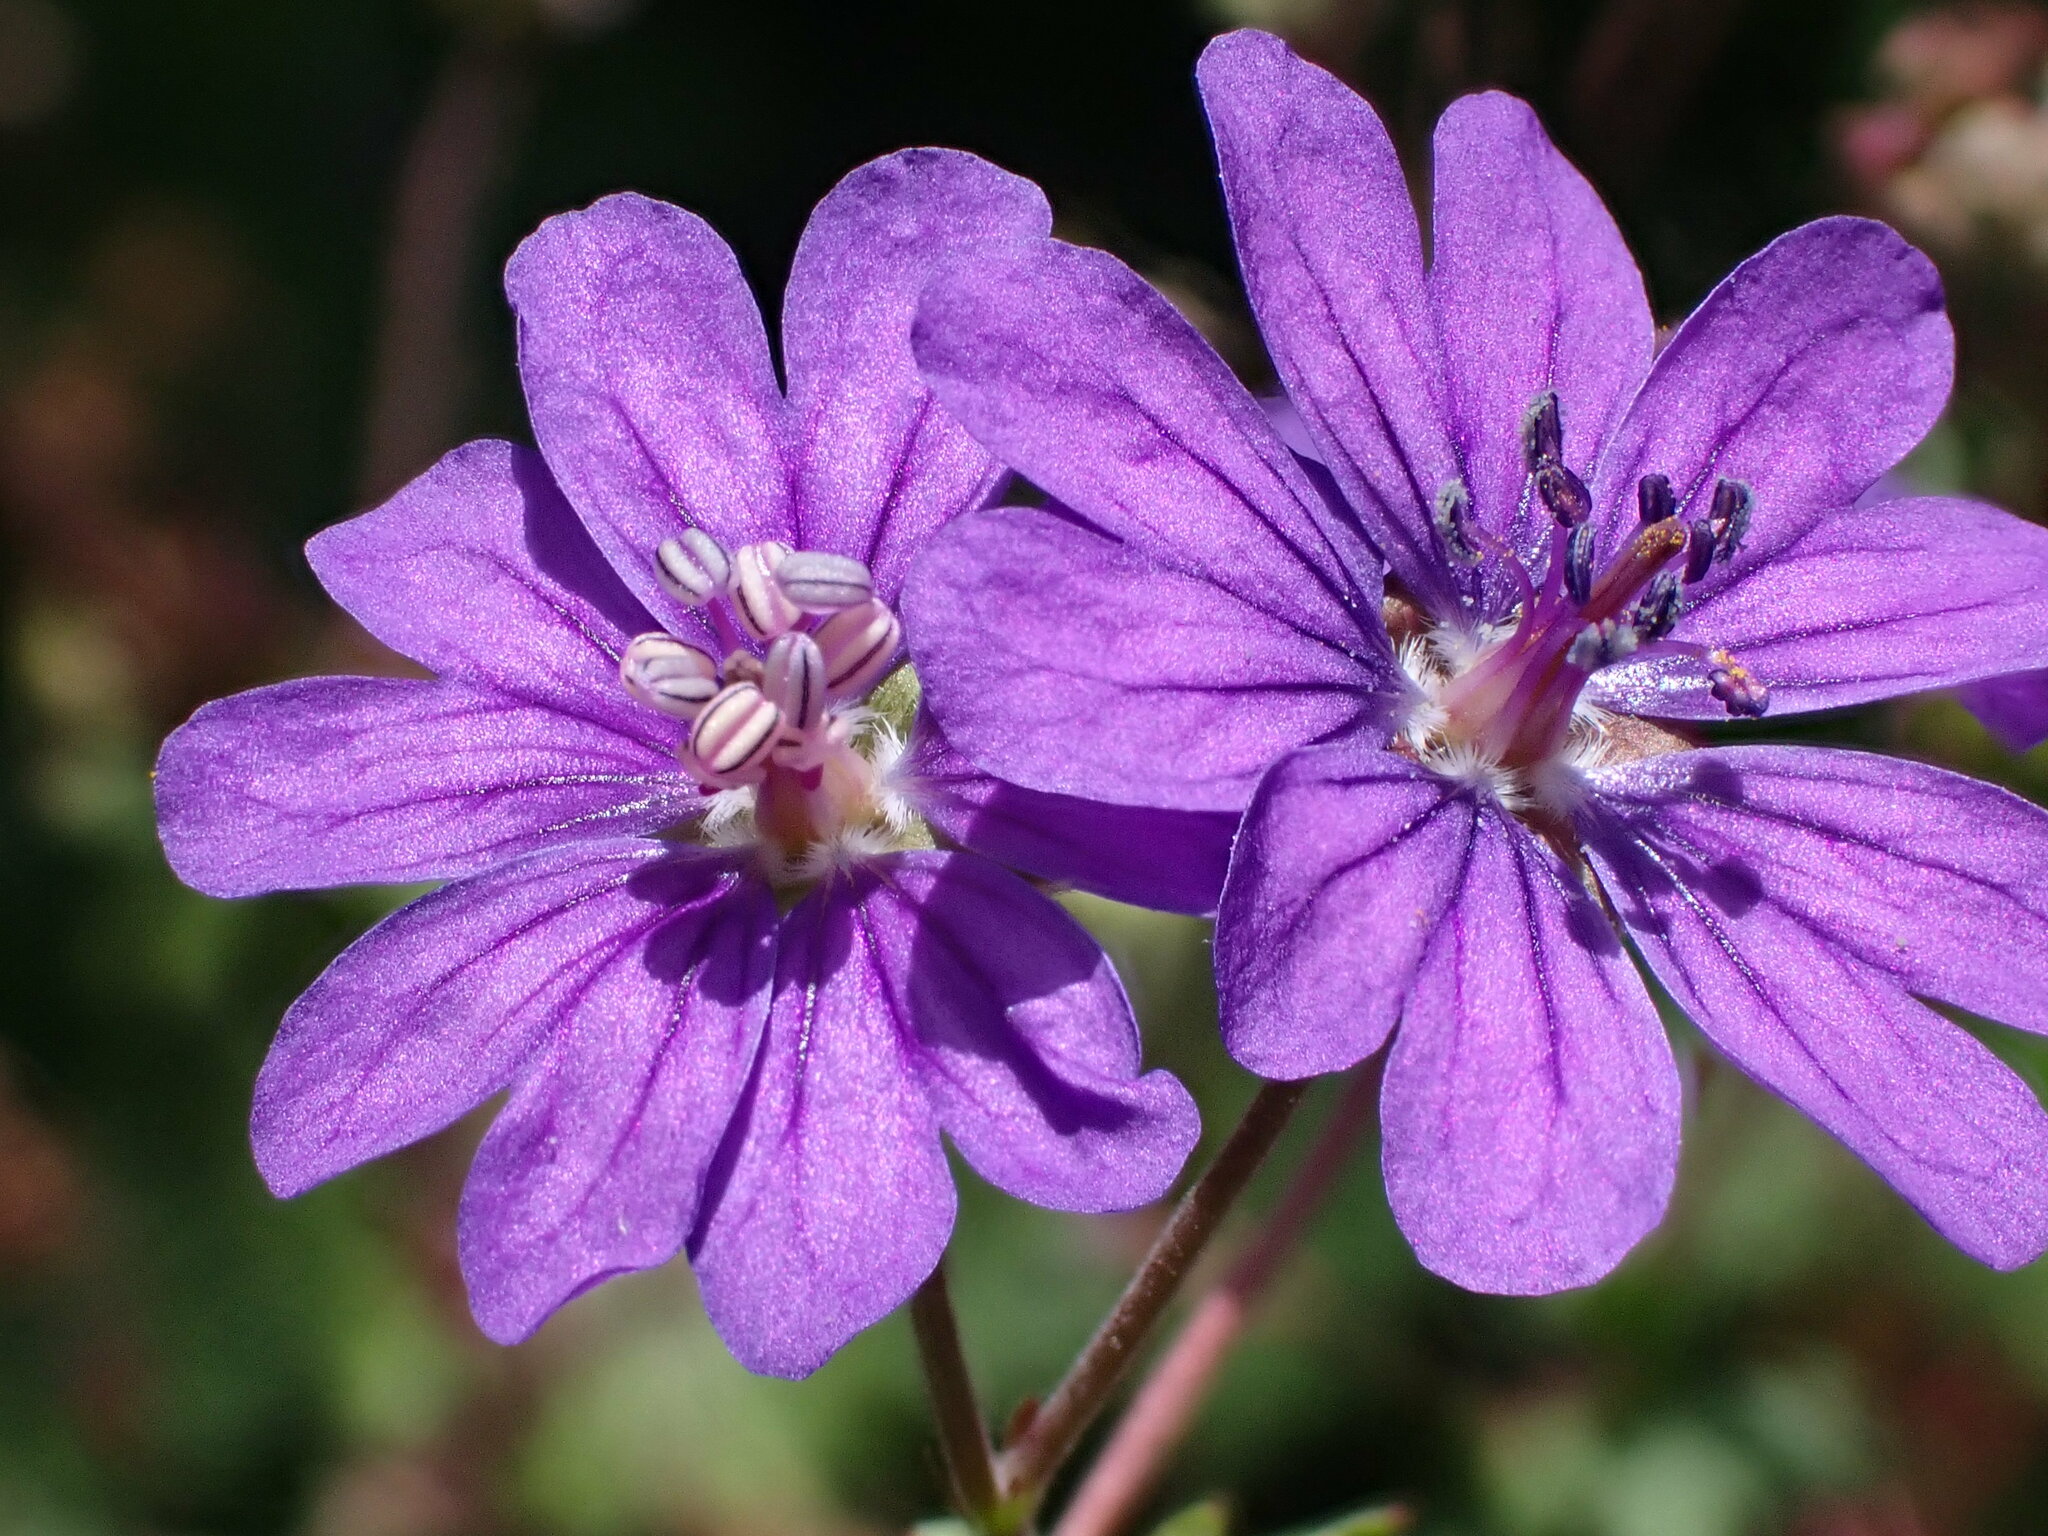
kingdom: Plantae
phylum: Tracheophyta
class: Magnoliopsida
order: Geraniales
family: Geraniaceae
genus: Geranium
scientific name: Geranium pyrenaicum
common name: Hedgerow crane's-bill
